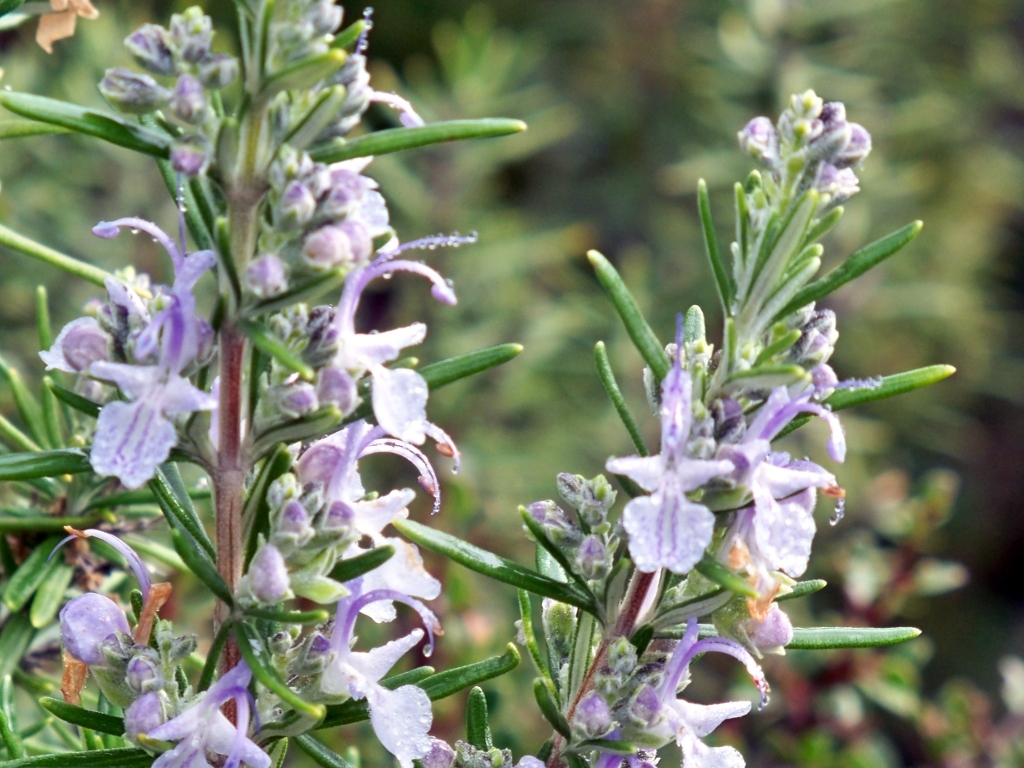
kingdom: Plantae
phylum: Tracheophyta
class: Magnoliopsida
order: Lamiales
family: Lamiaceae
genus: Salvia
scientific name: Salvia rosmarinus
